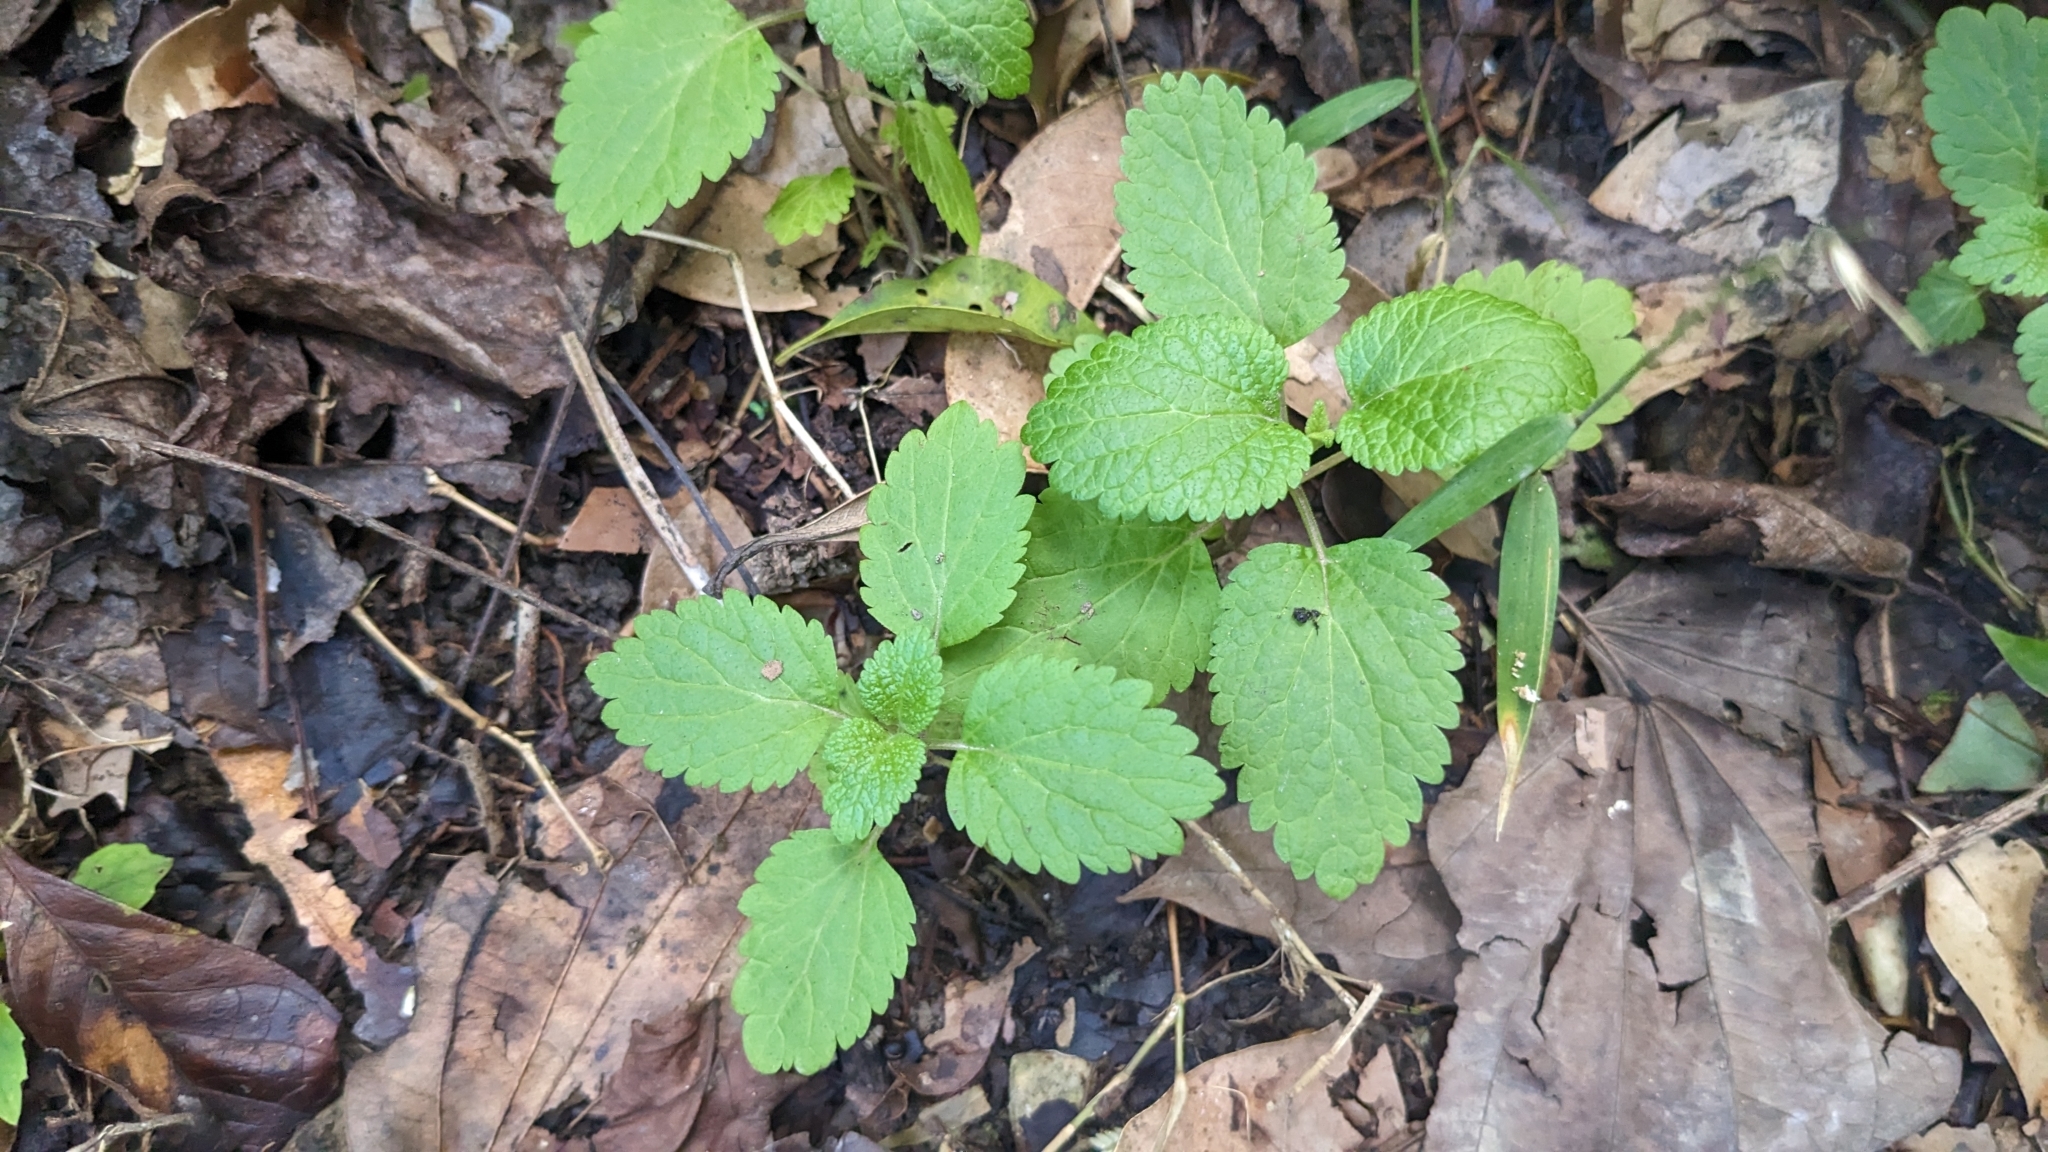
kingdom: Plantae
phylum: Tracheophyta
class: Magnoliopsida
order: Lamiales
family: Lamiaceae
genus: Teucrium
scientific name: Teucrium viscidum
